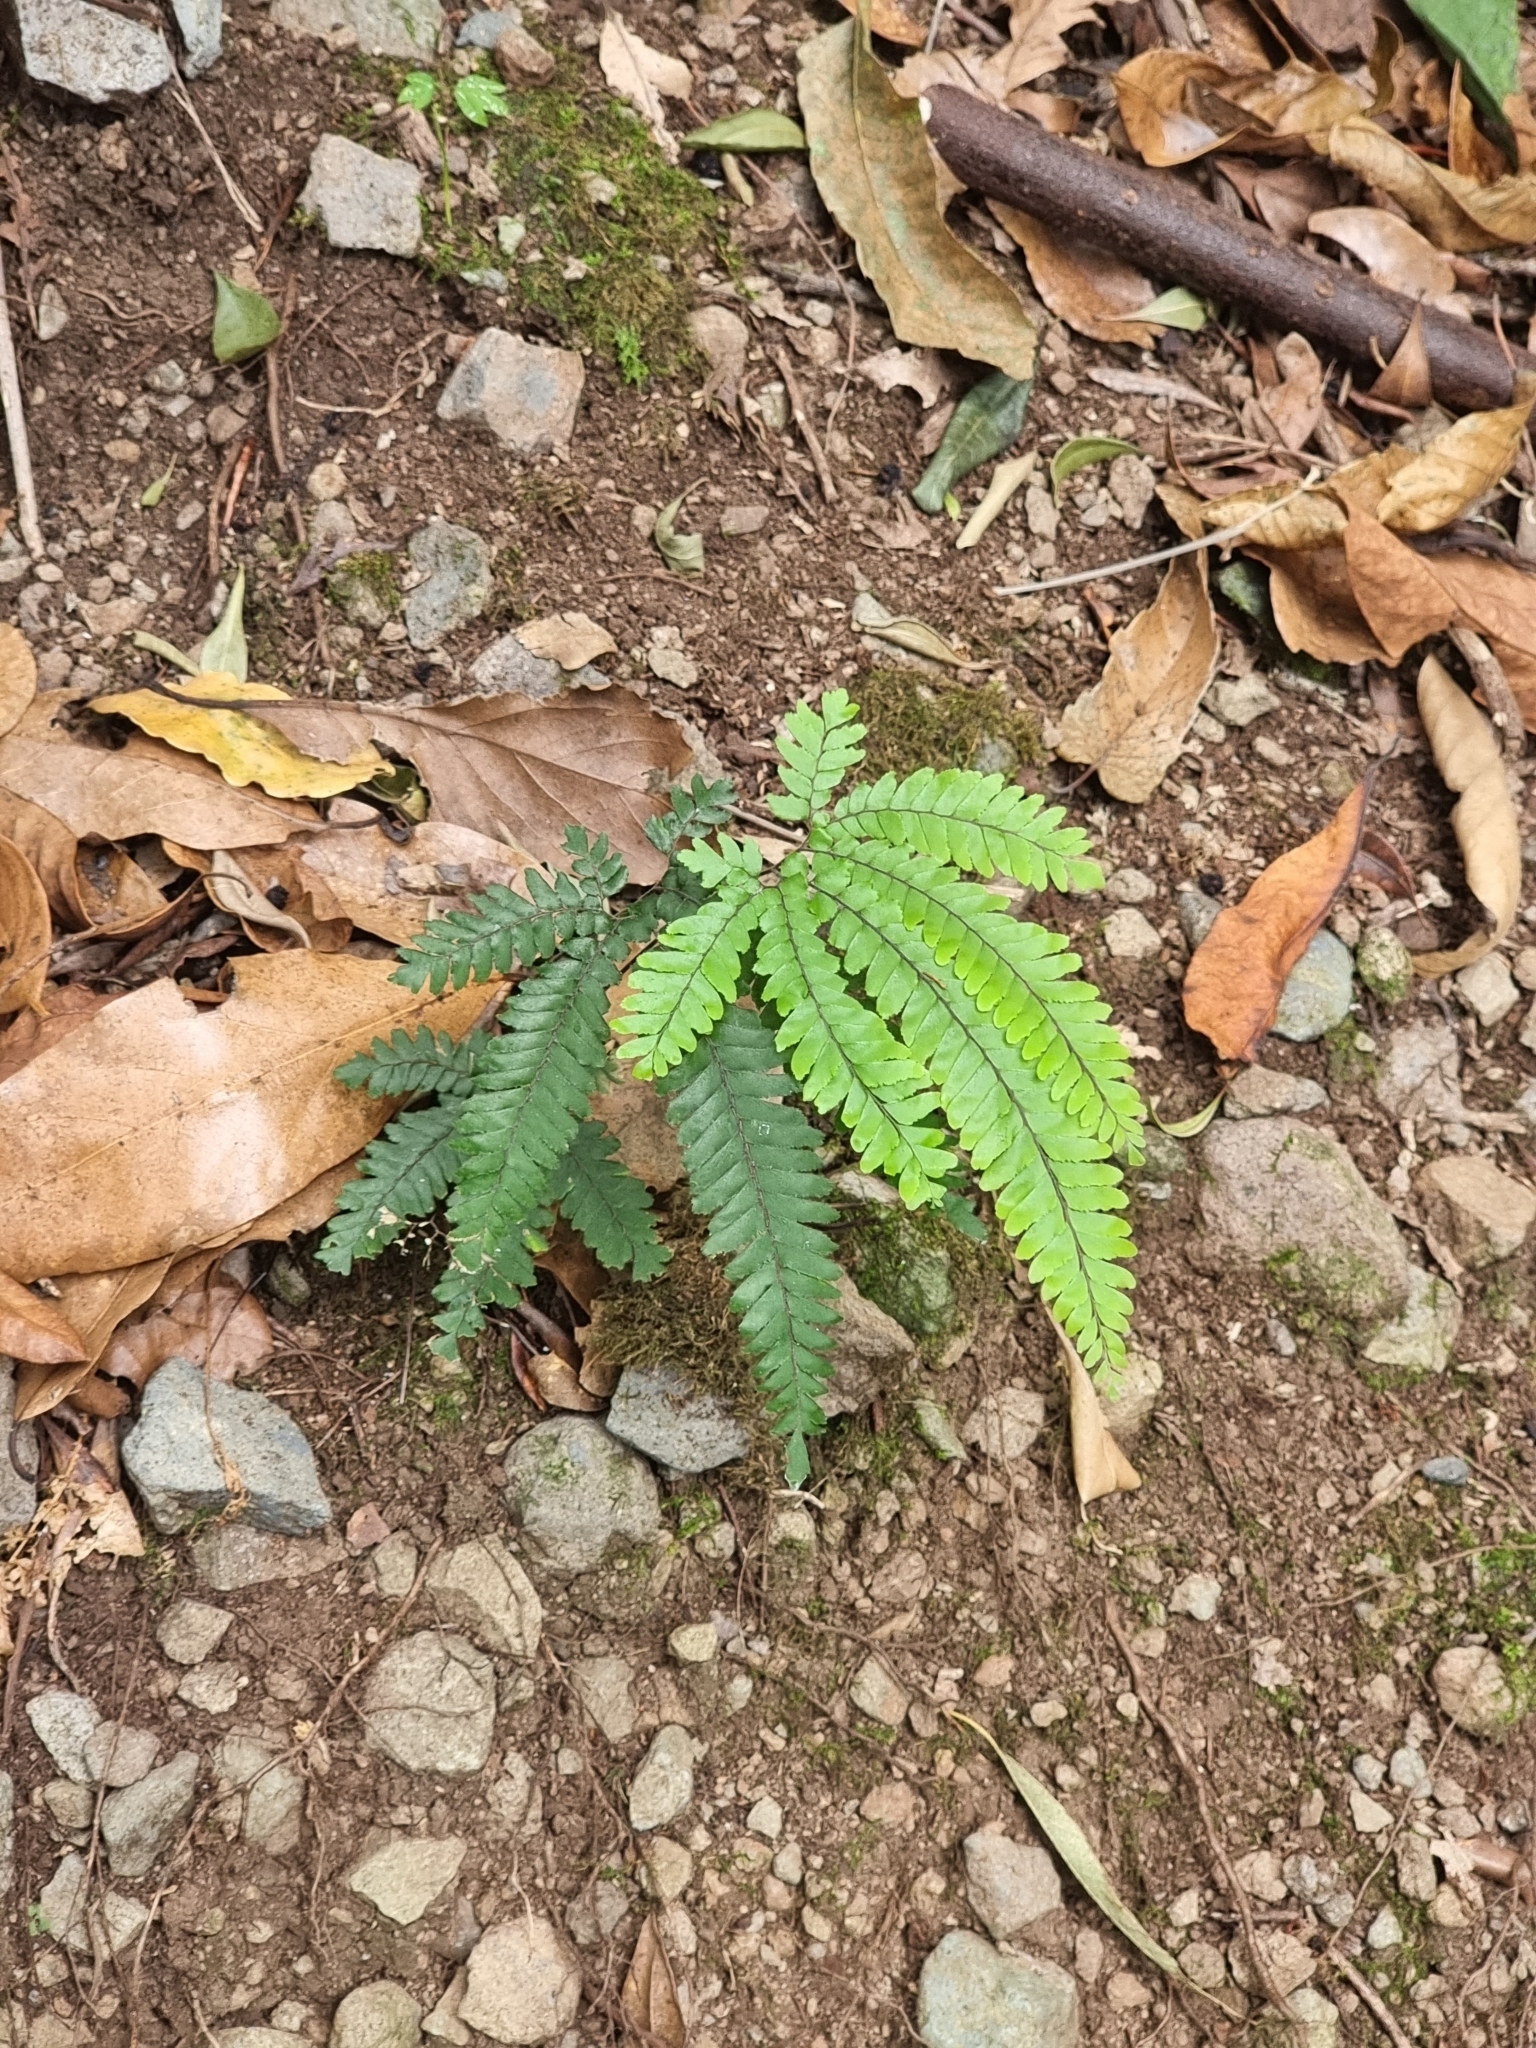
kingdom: Plantae
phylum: Tracheophyta
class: Polypodiopsida
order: Polypodiales
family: Pteridaceae
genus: Adiantum
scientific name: Adiantum hispidulum
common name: Rough maidenhair
